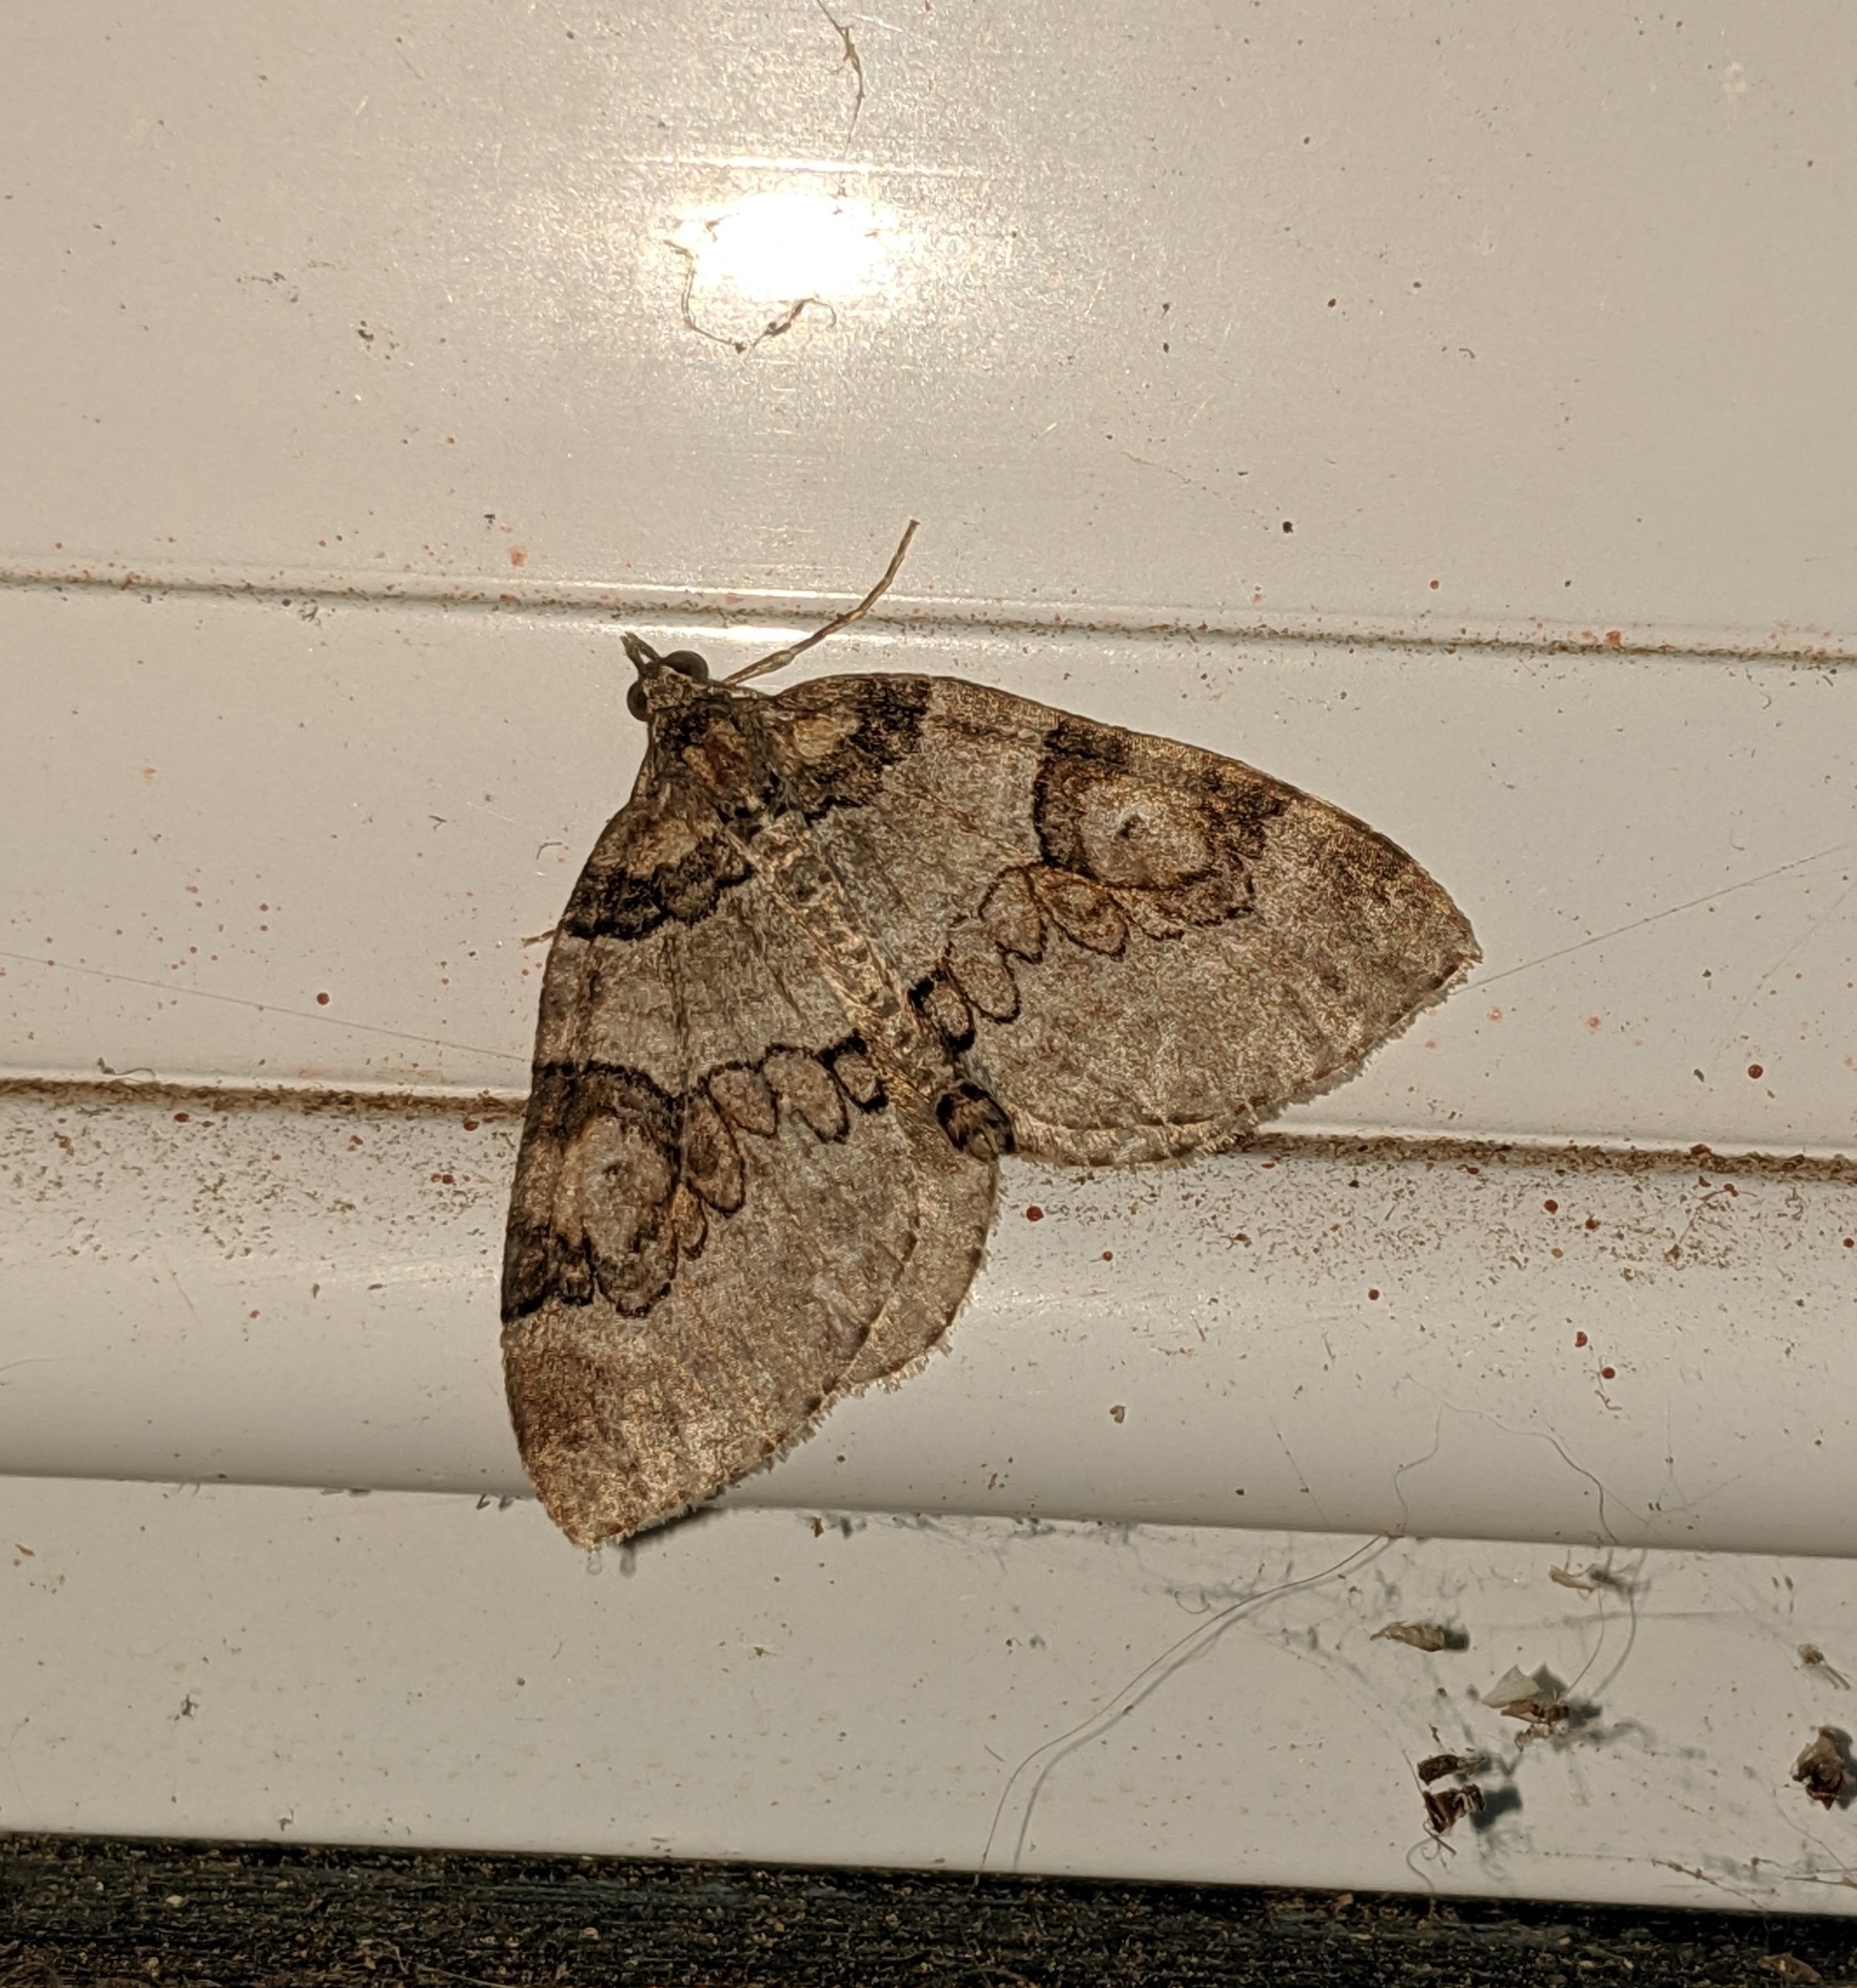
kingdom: Animalia
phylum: Arthropoda
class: Insecta
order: Lepidoptera
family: Geometridae
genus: Plemyria
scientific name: Plemyria georgii
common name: George's carpet moth
